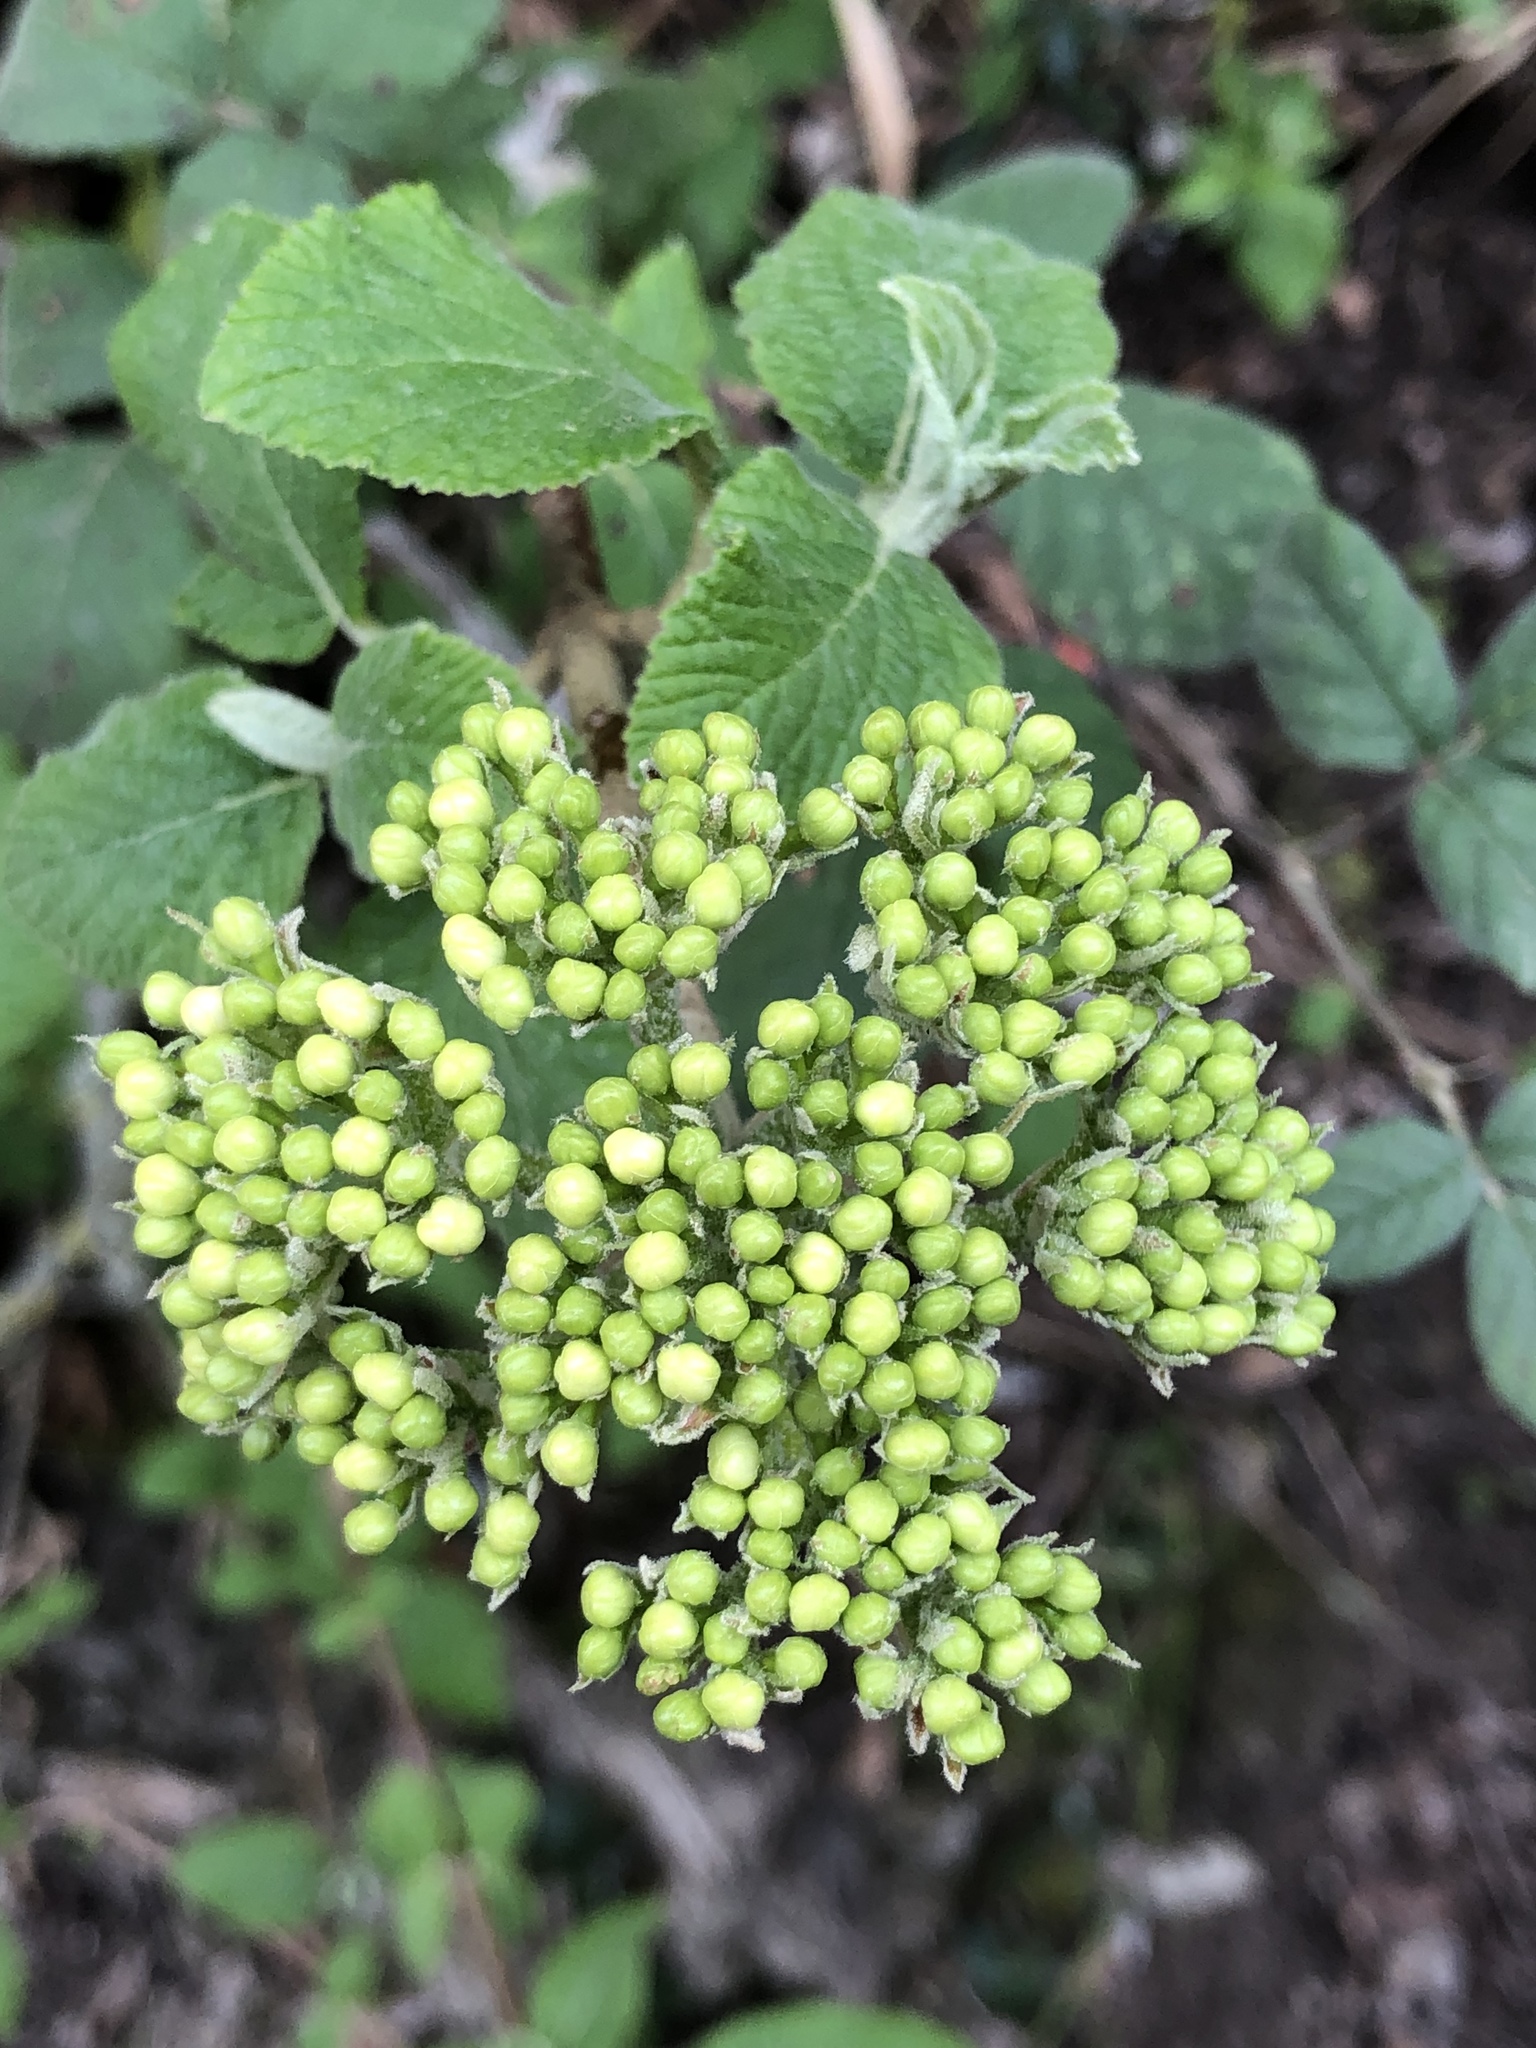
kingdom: Plantae
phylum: Tracheophyta
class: Magnoliopsida
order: Dipsacales
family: Viburnaceae
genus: Viburnum
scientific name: Viburnum lantana
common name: Wayfaring tree
